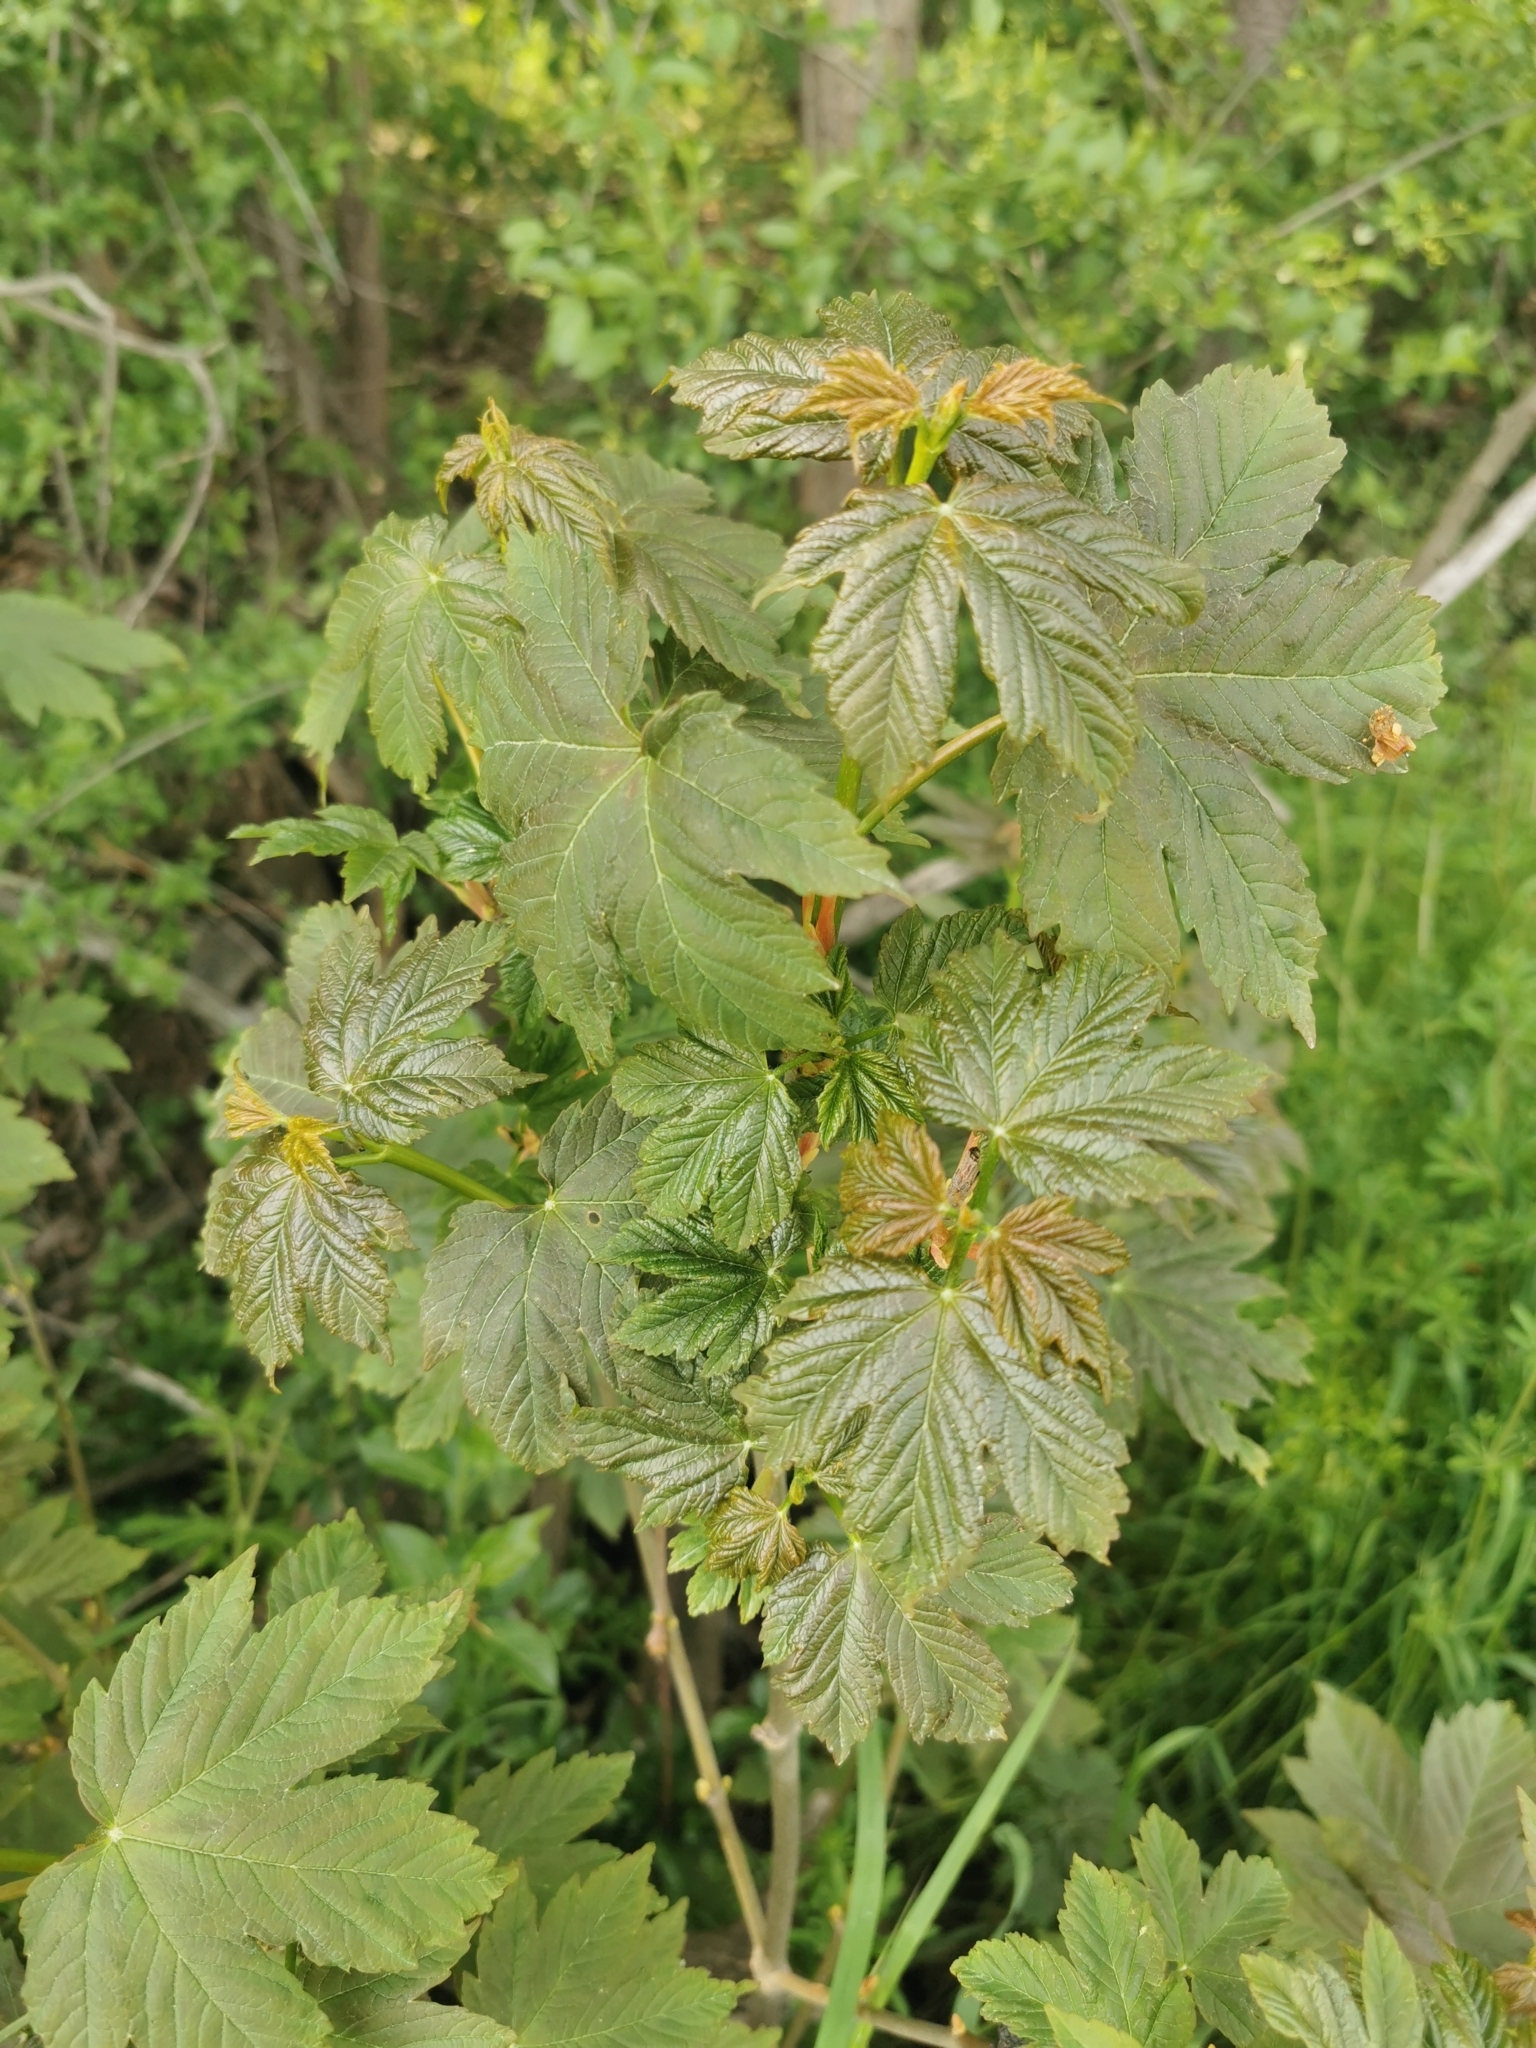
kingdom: Plantae
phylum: Tracheophyta
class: Magnoliopsida
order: Sapindales
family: Sapindaceae
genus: Acer
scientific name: Acer pseudoplatanus
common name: Sycamore
